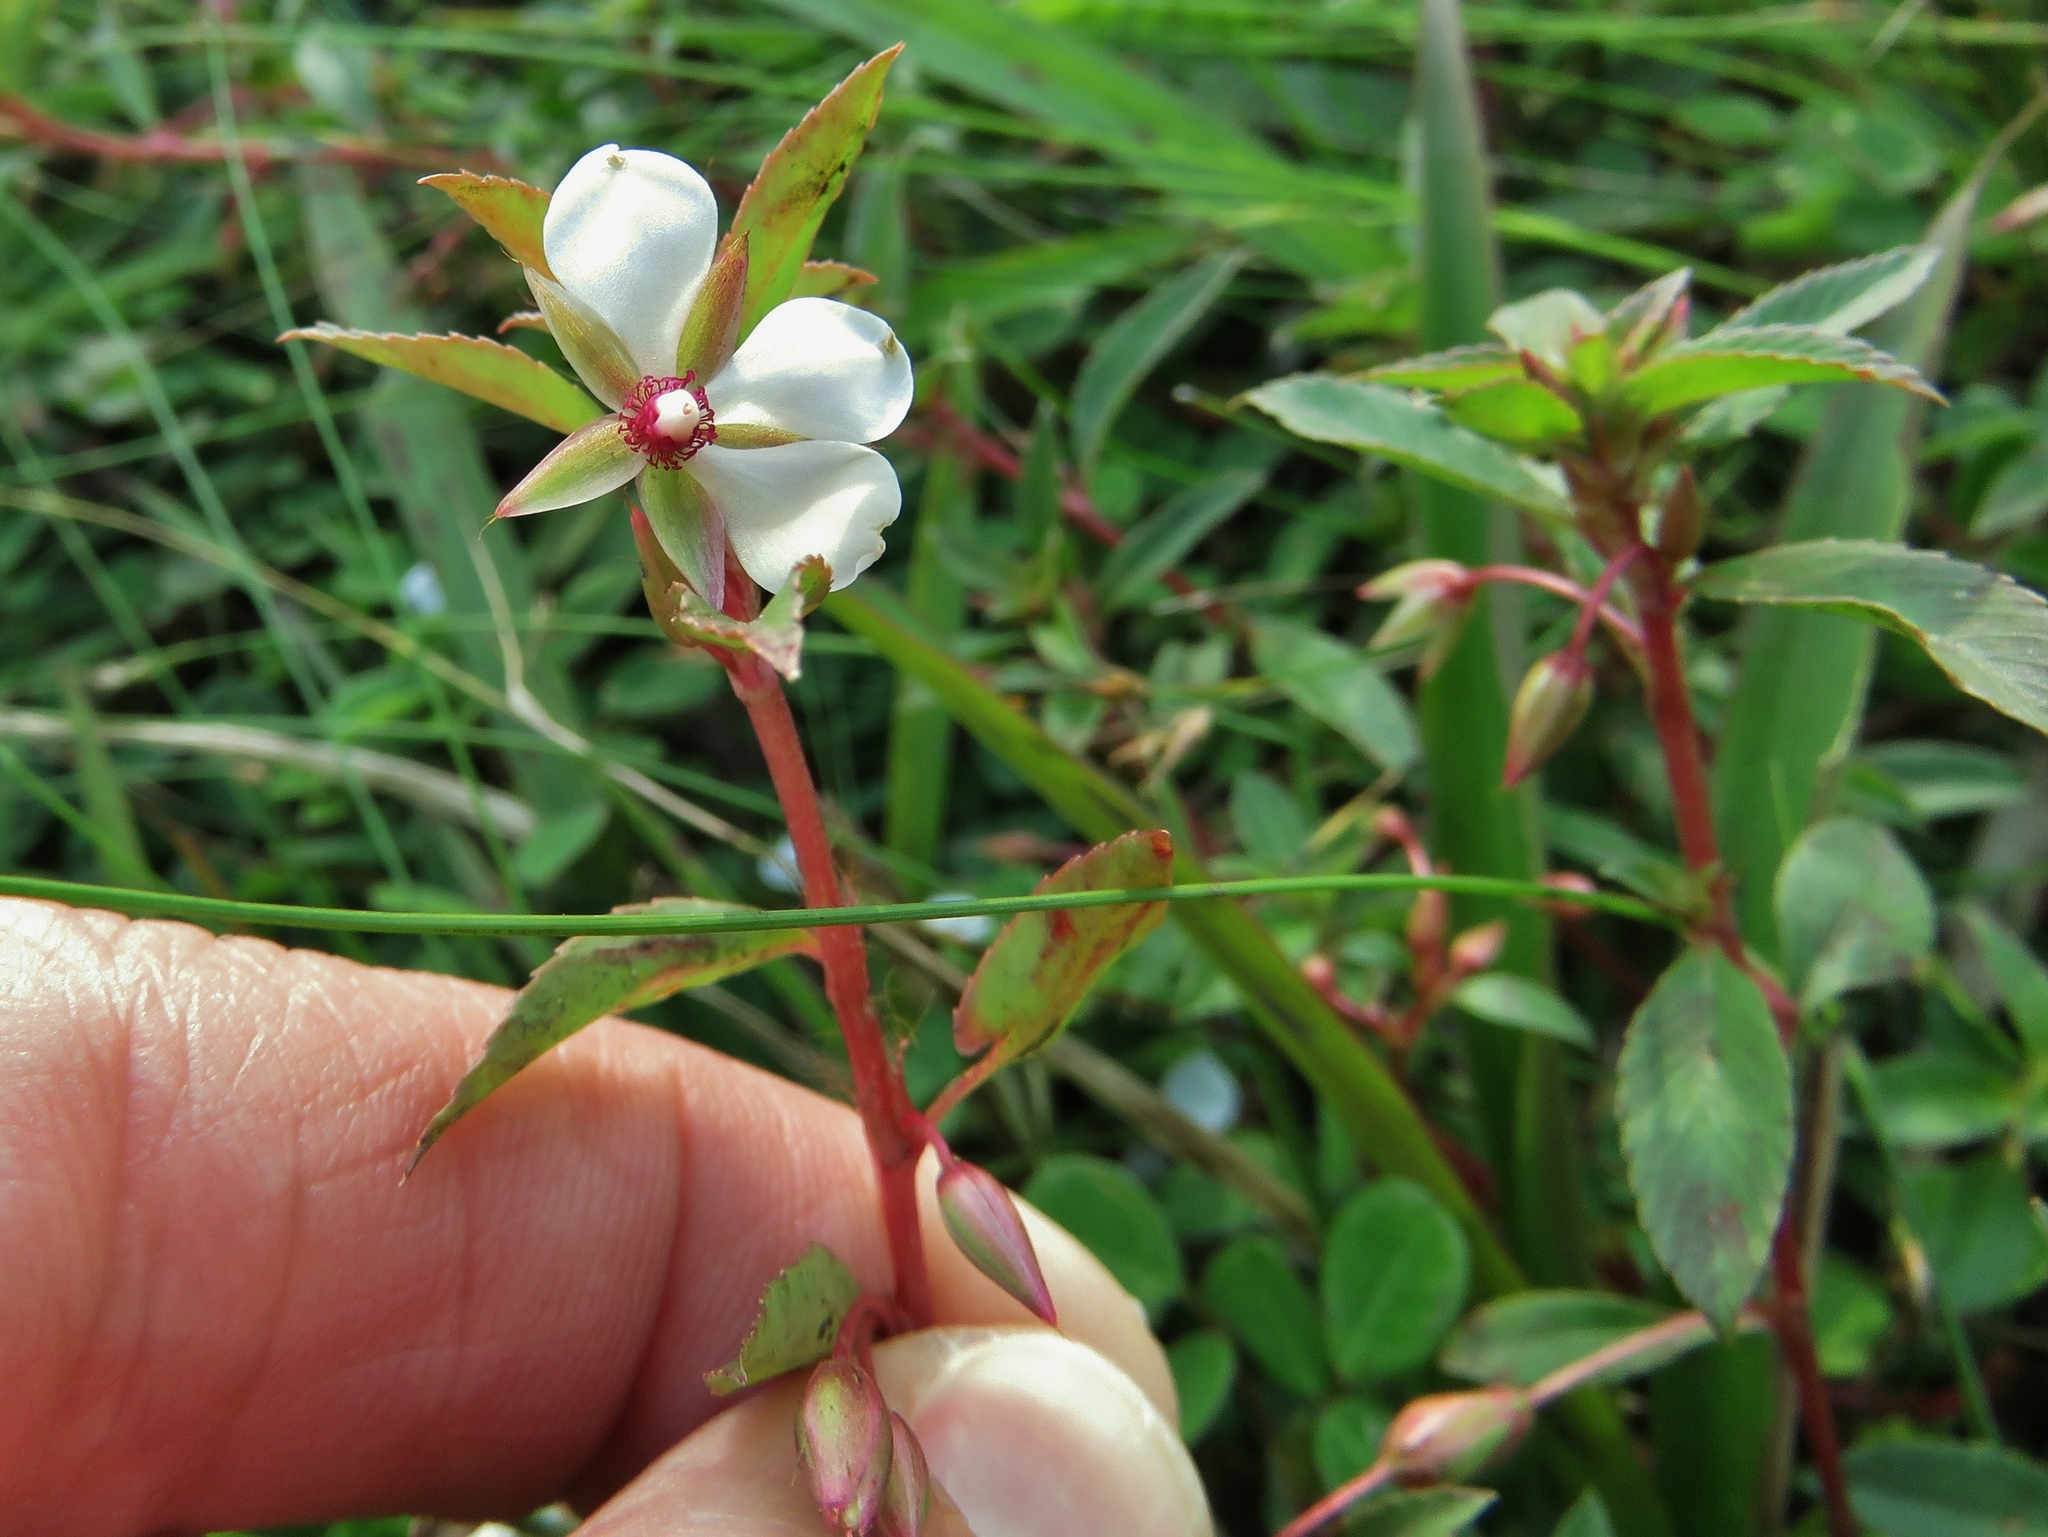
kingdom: Plantae
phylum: Tracheophyta
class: Magnoliopsida
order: Malpighiales
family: Ochnaceae
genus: Sauvagesia
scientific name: Sauvagesia erecta
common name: Creole tea
